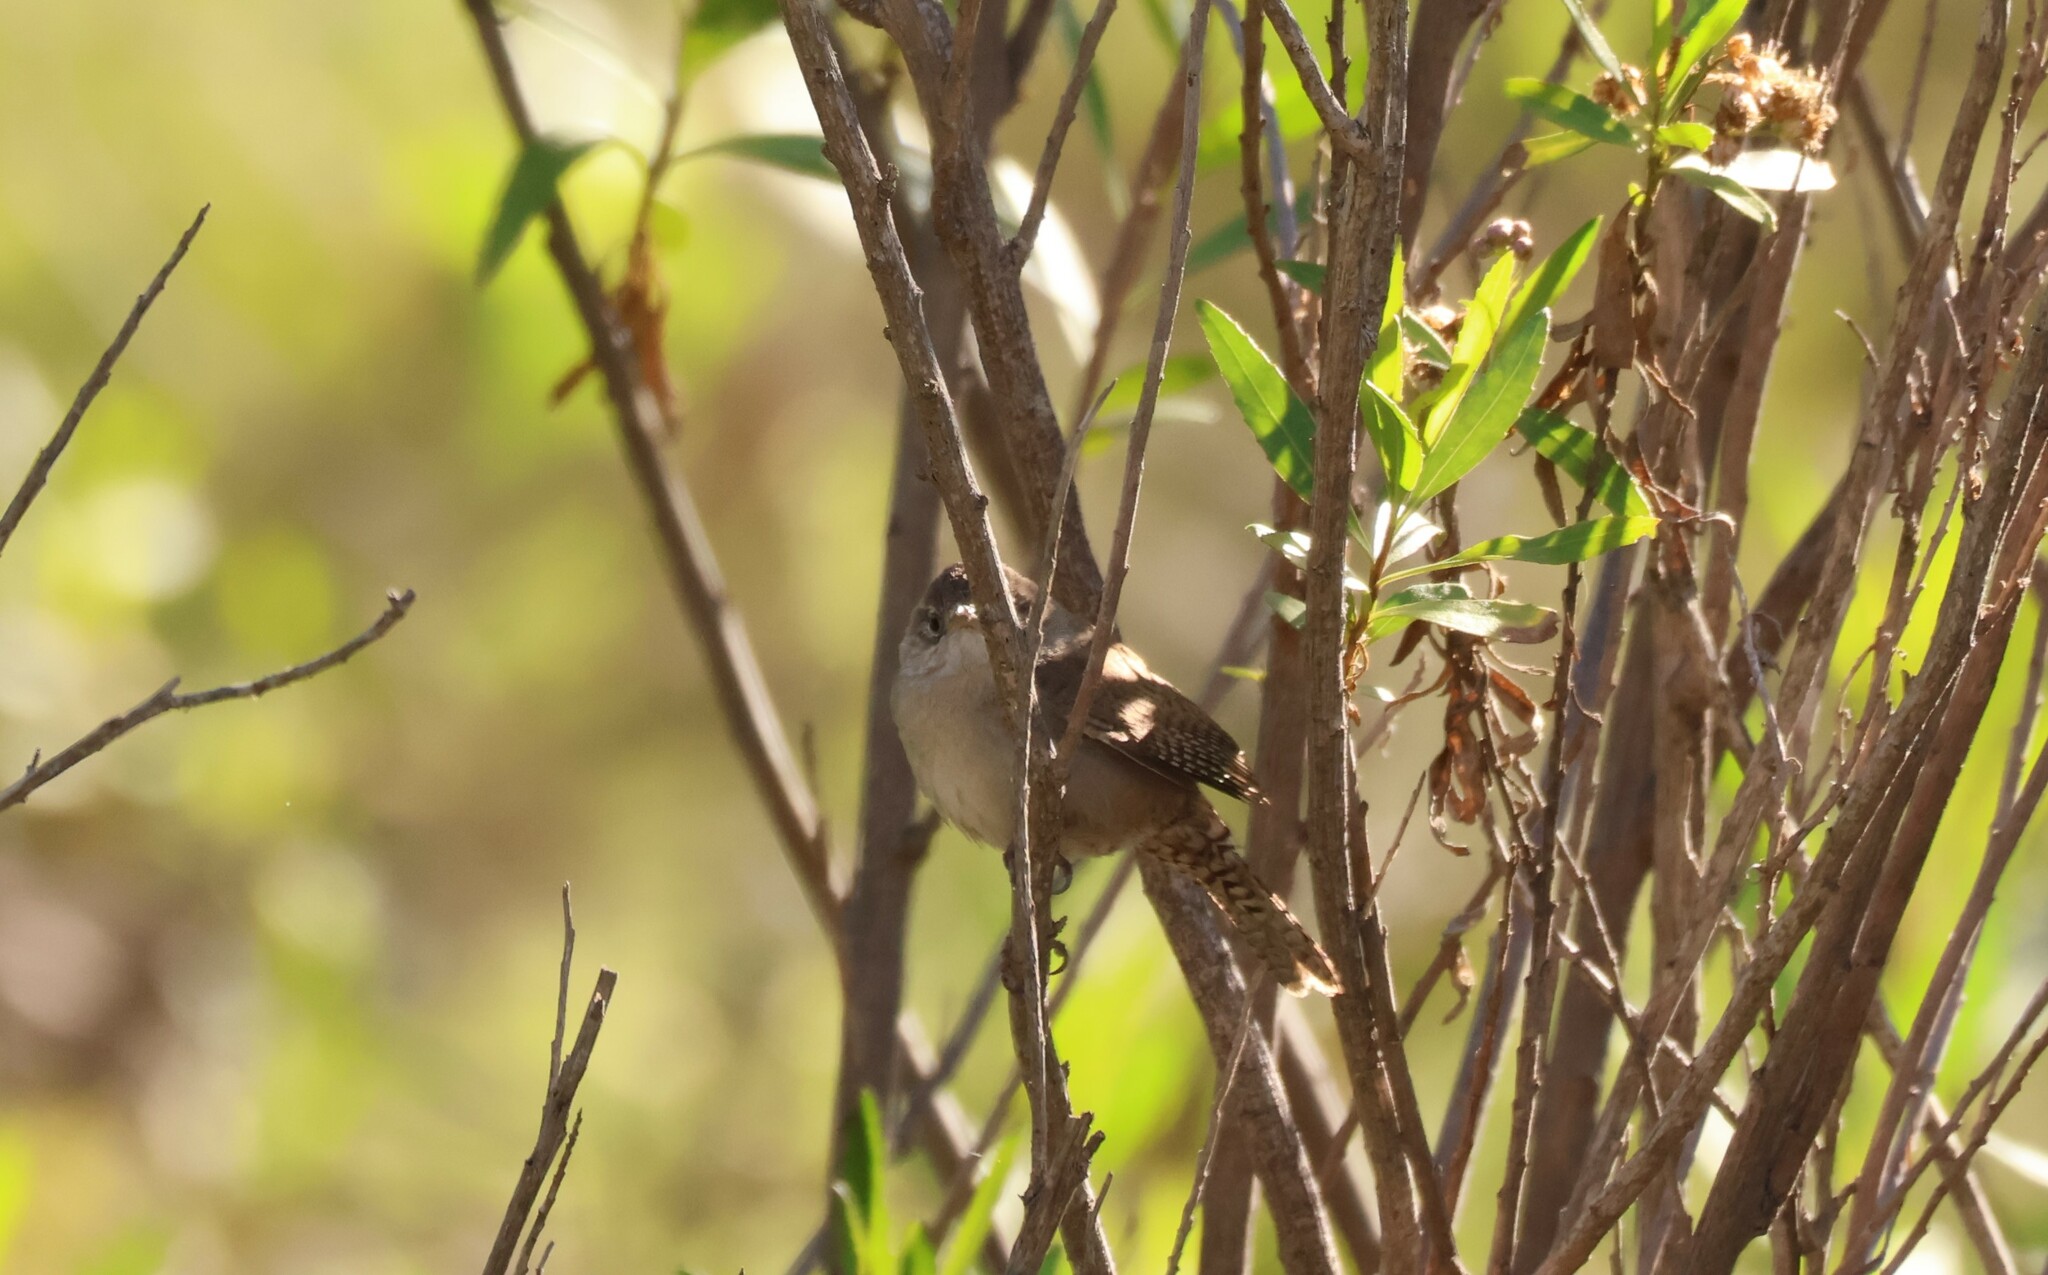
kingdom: Animalia
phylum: Chordata
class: Aves
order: Passeriformes
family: Troglodytidae
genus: Troglodytes
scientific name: Troglodytes aedon
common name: House wren
